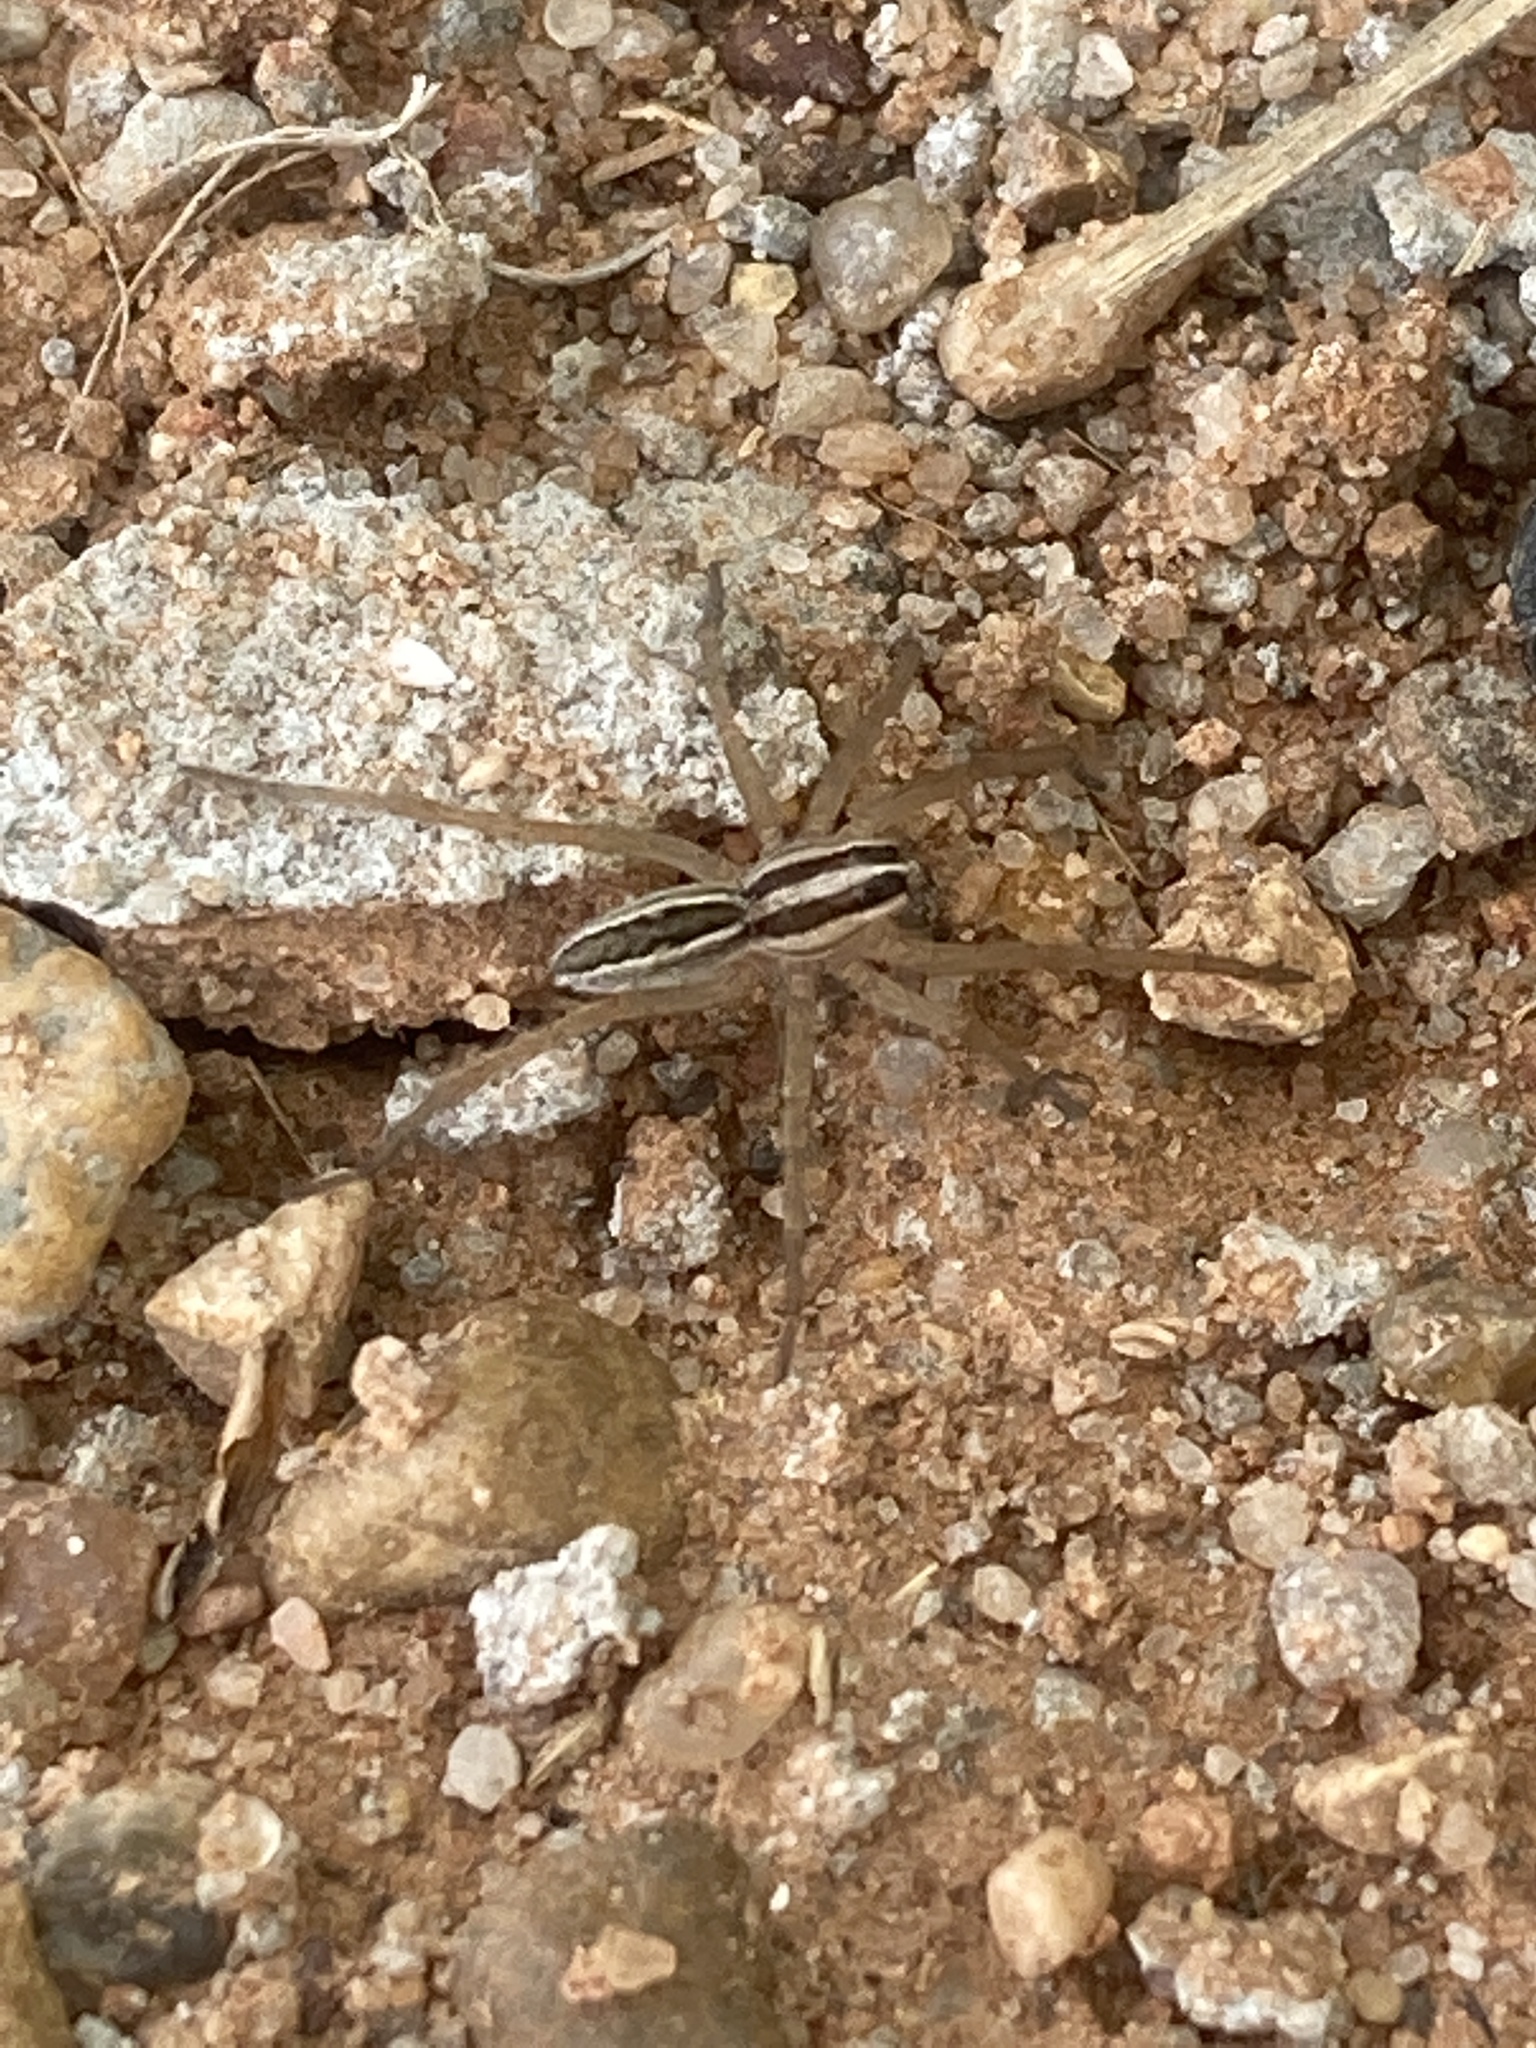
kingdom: Animalia
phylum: Arthropoda
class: Arachnida
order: Araneae
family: Lycosidae
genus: Rabidosa
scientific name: Rabidosa rabida
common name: Rabid wolf spider
